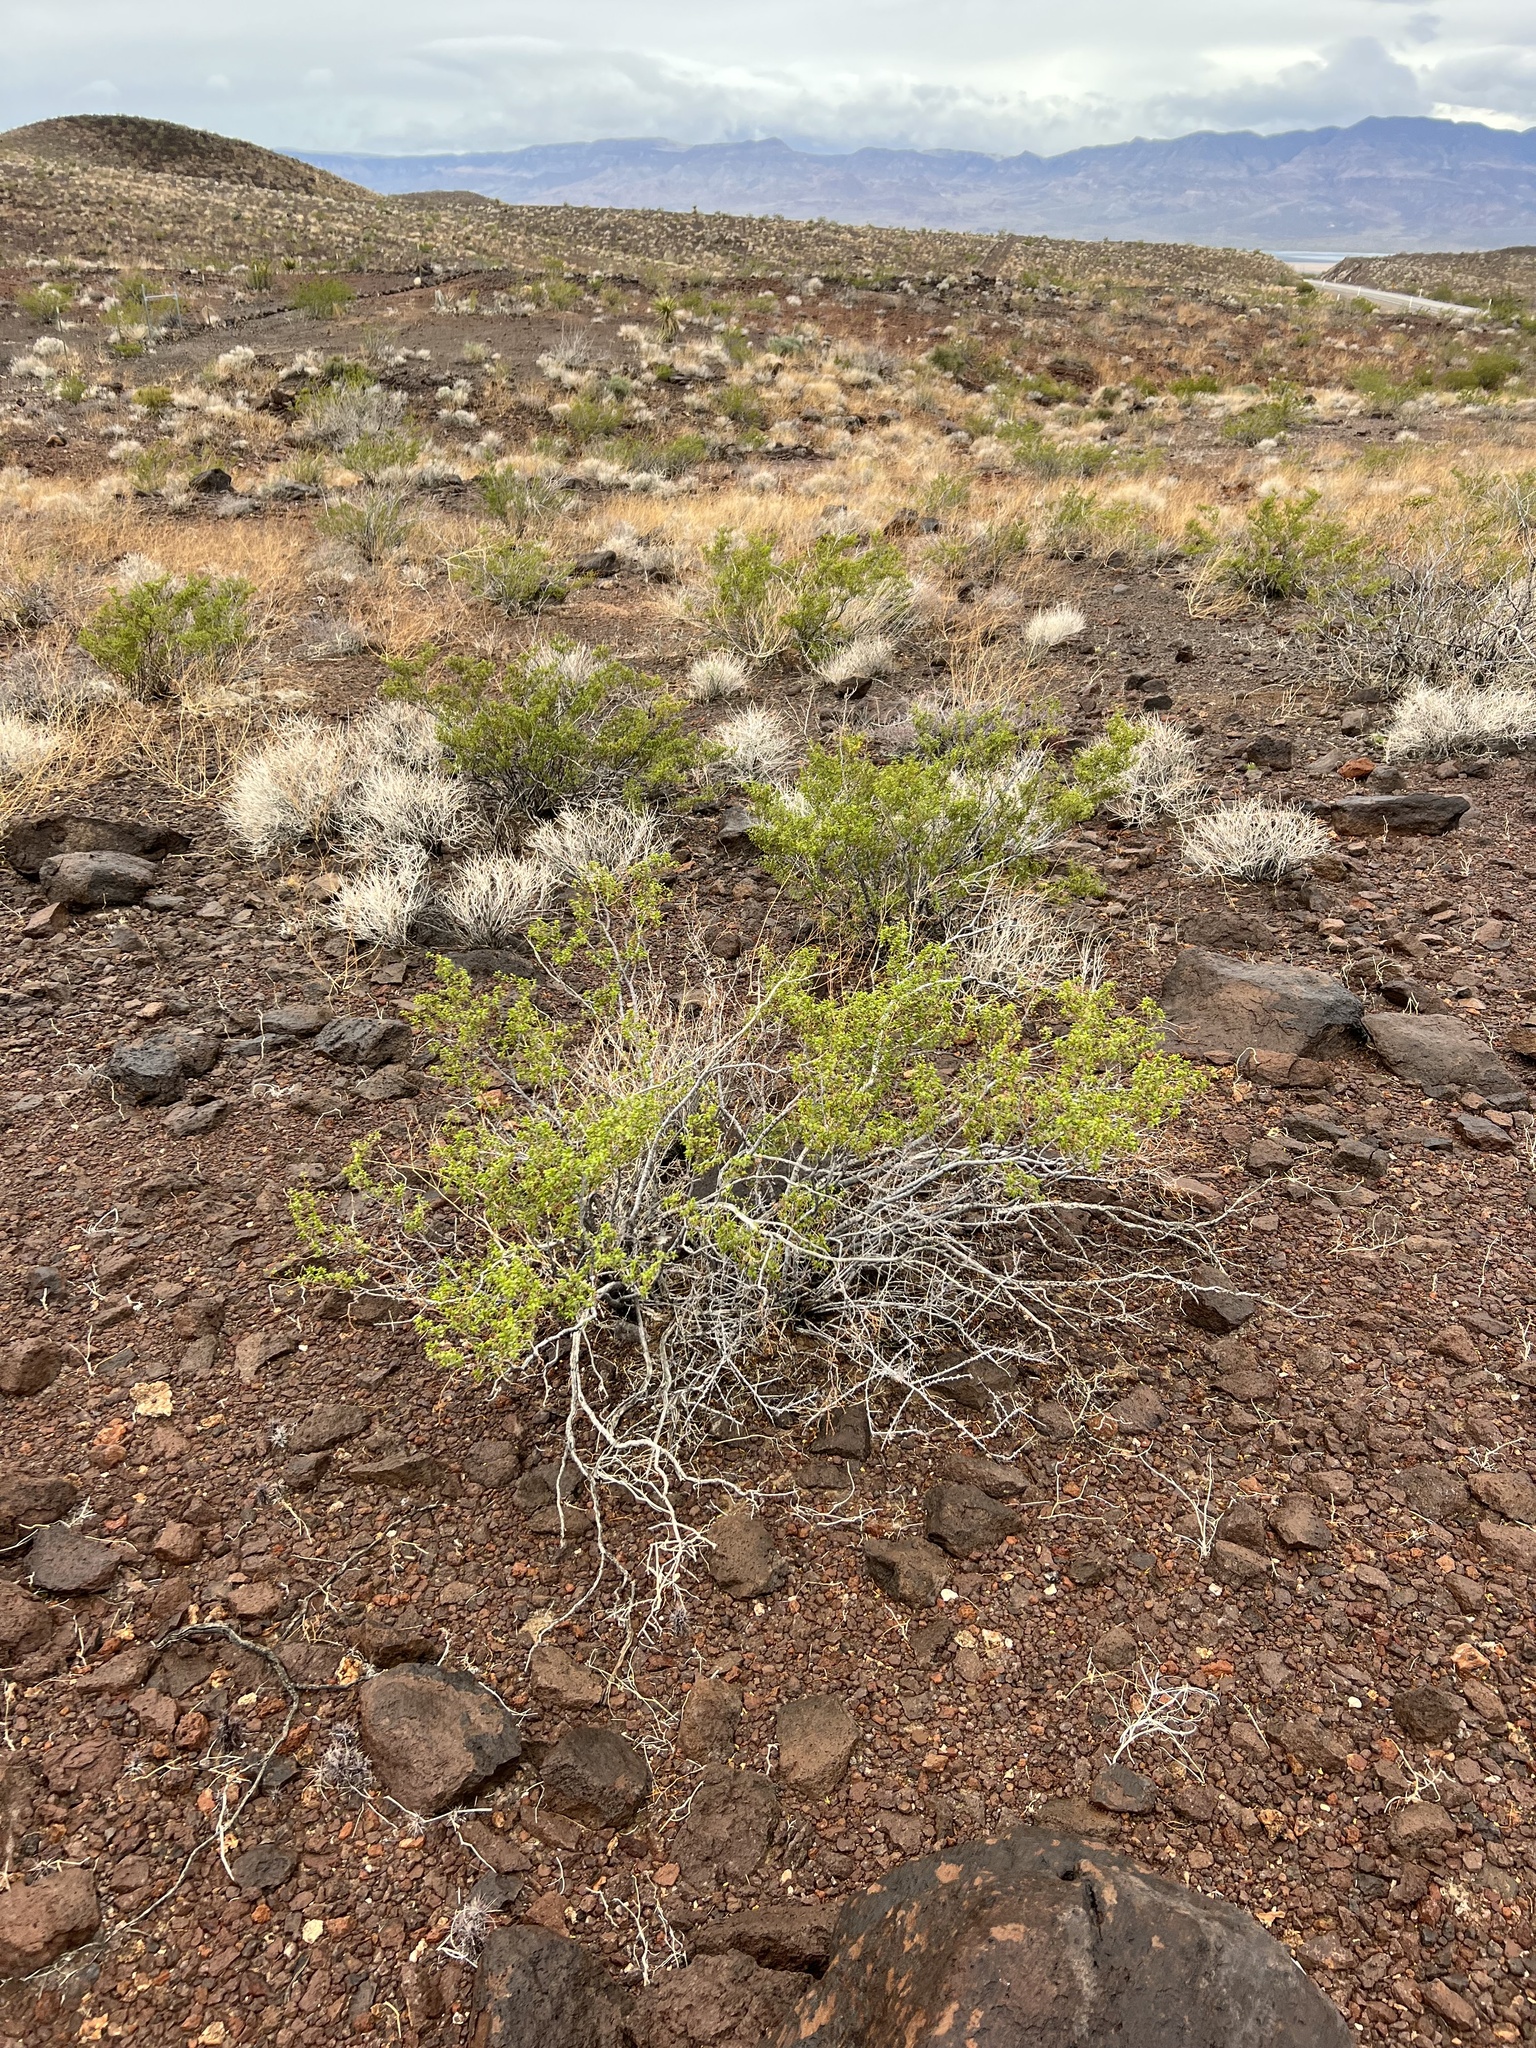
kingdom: Plantae
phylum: Tracheophyta
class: Magnoliopsida
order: Zygophyllales
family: Zygophyllaceae
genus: Larrea
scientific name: Larrea tridentata
